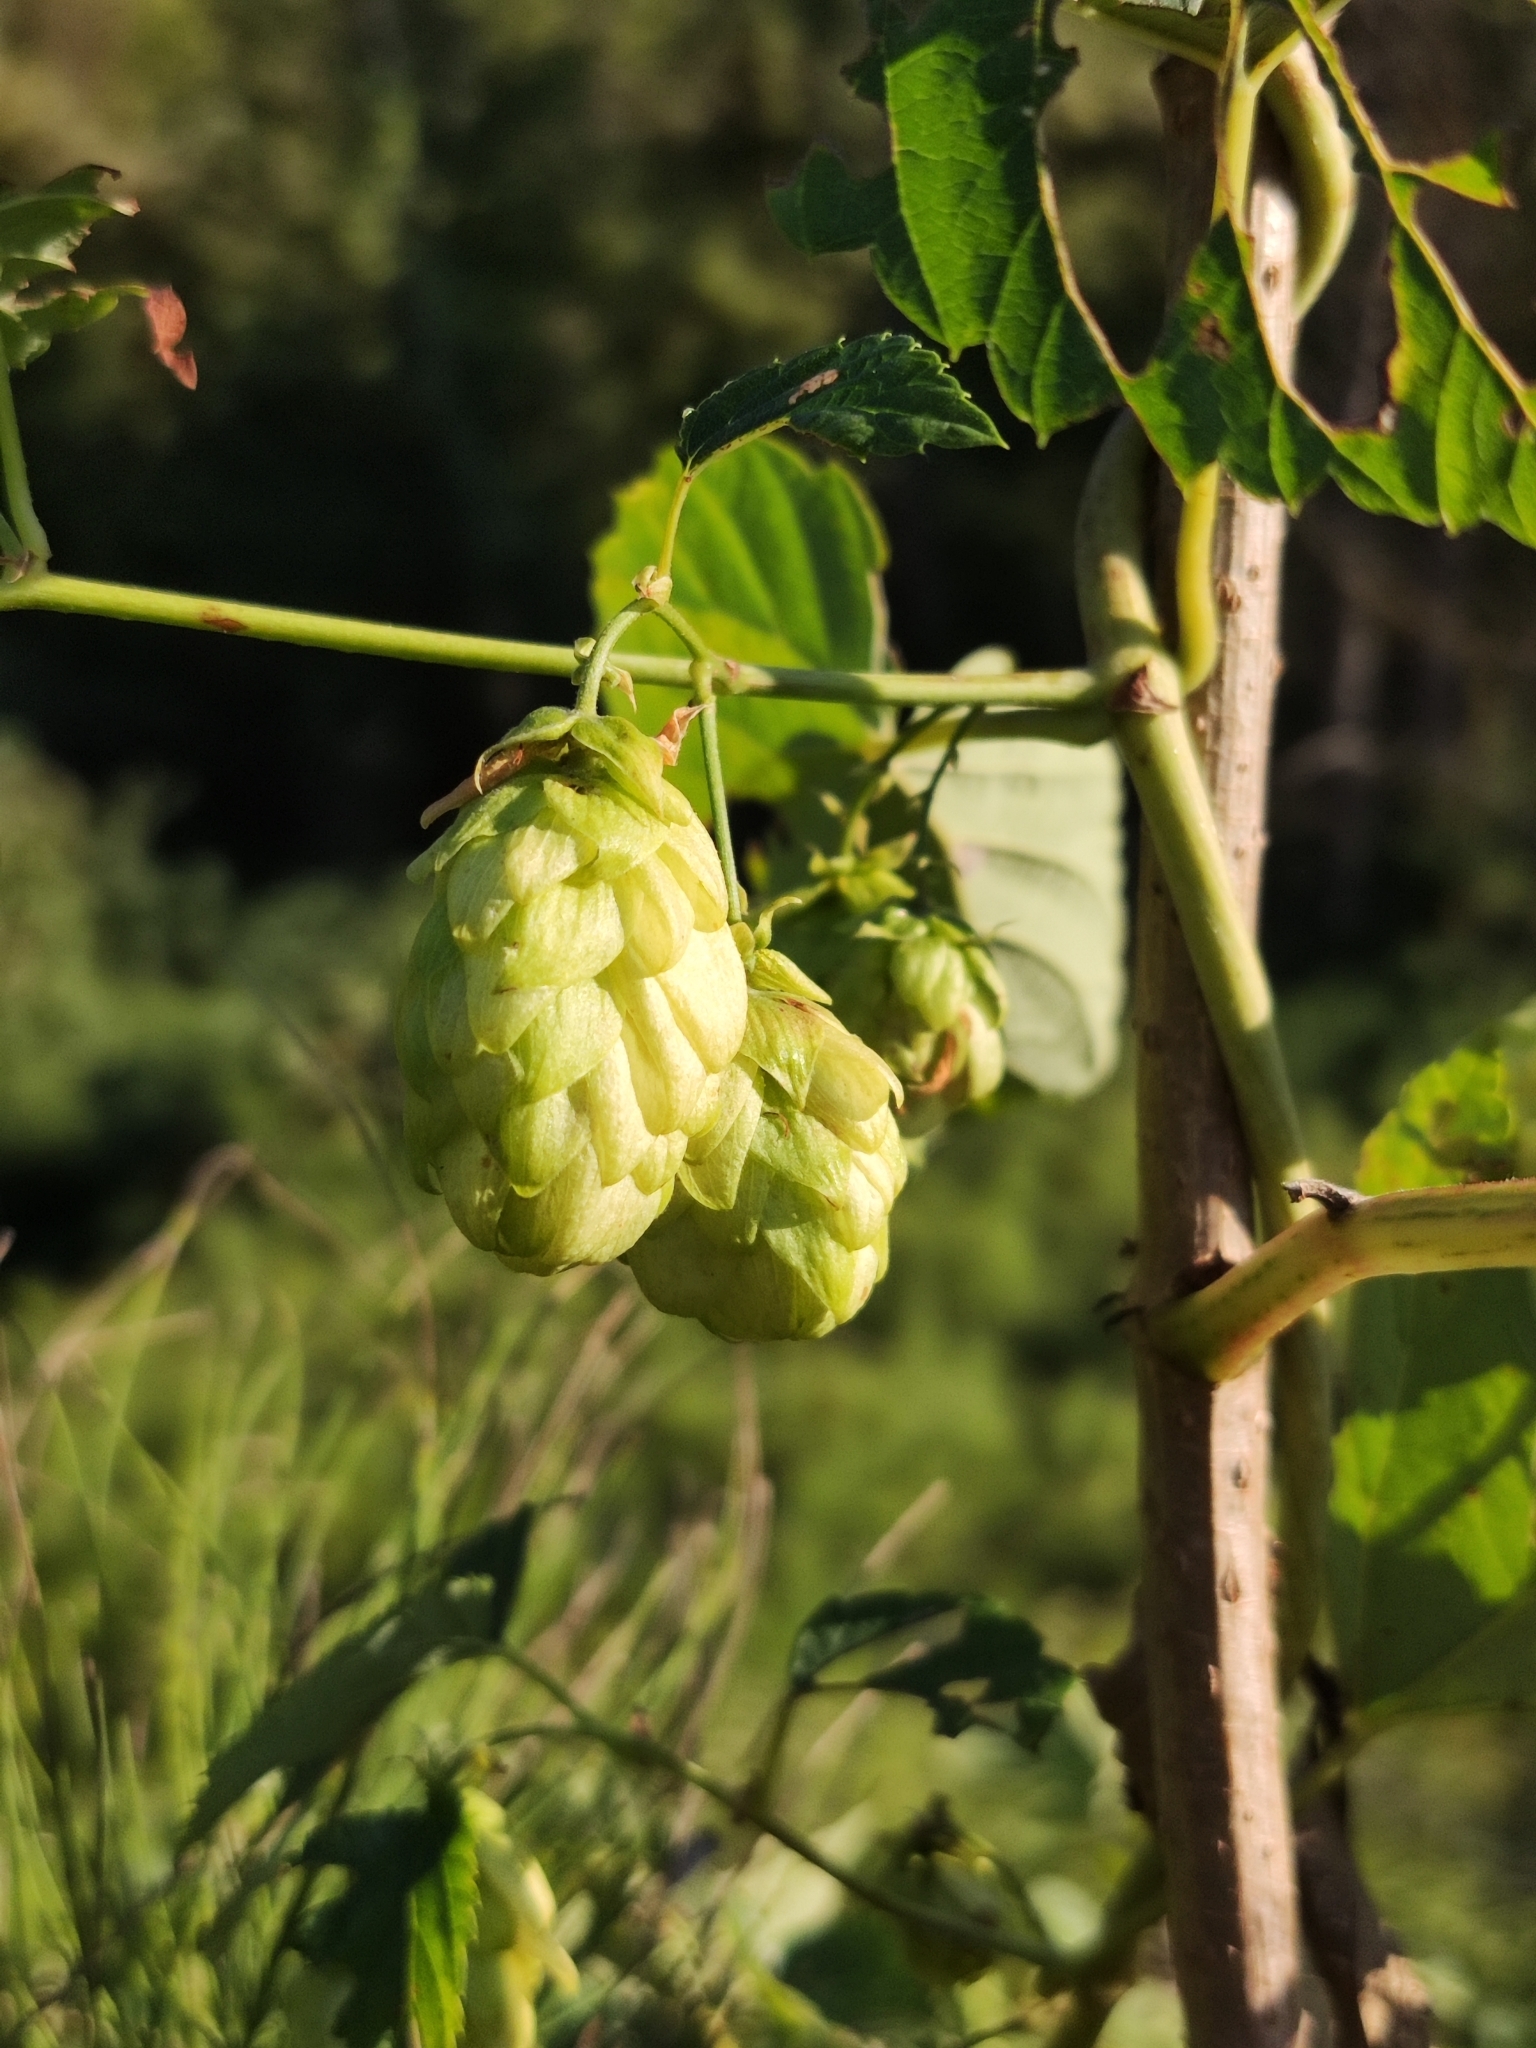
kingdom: Plantae
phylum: Tracheophyta
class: Magnoliopsida
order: Rosales
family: Cannabaceae
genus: Humulus
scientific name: Humulus lupulus
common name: Hop
